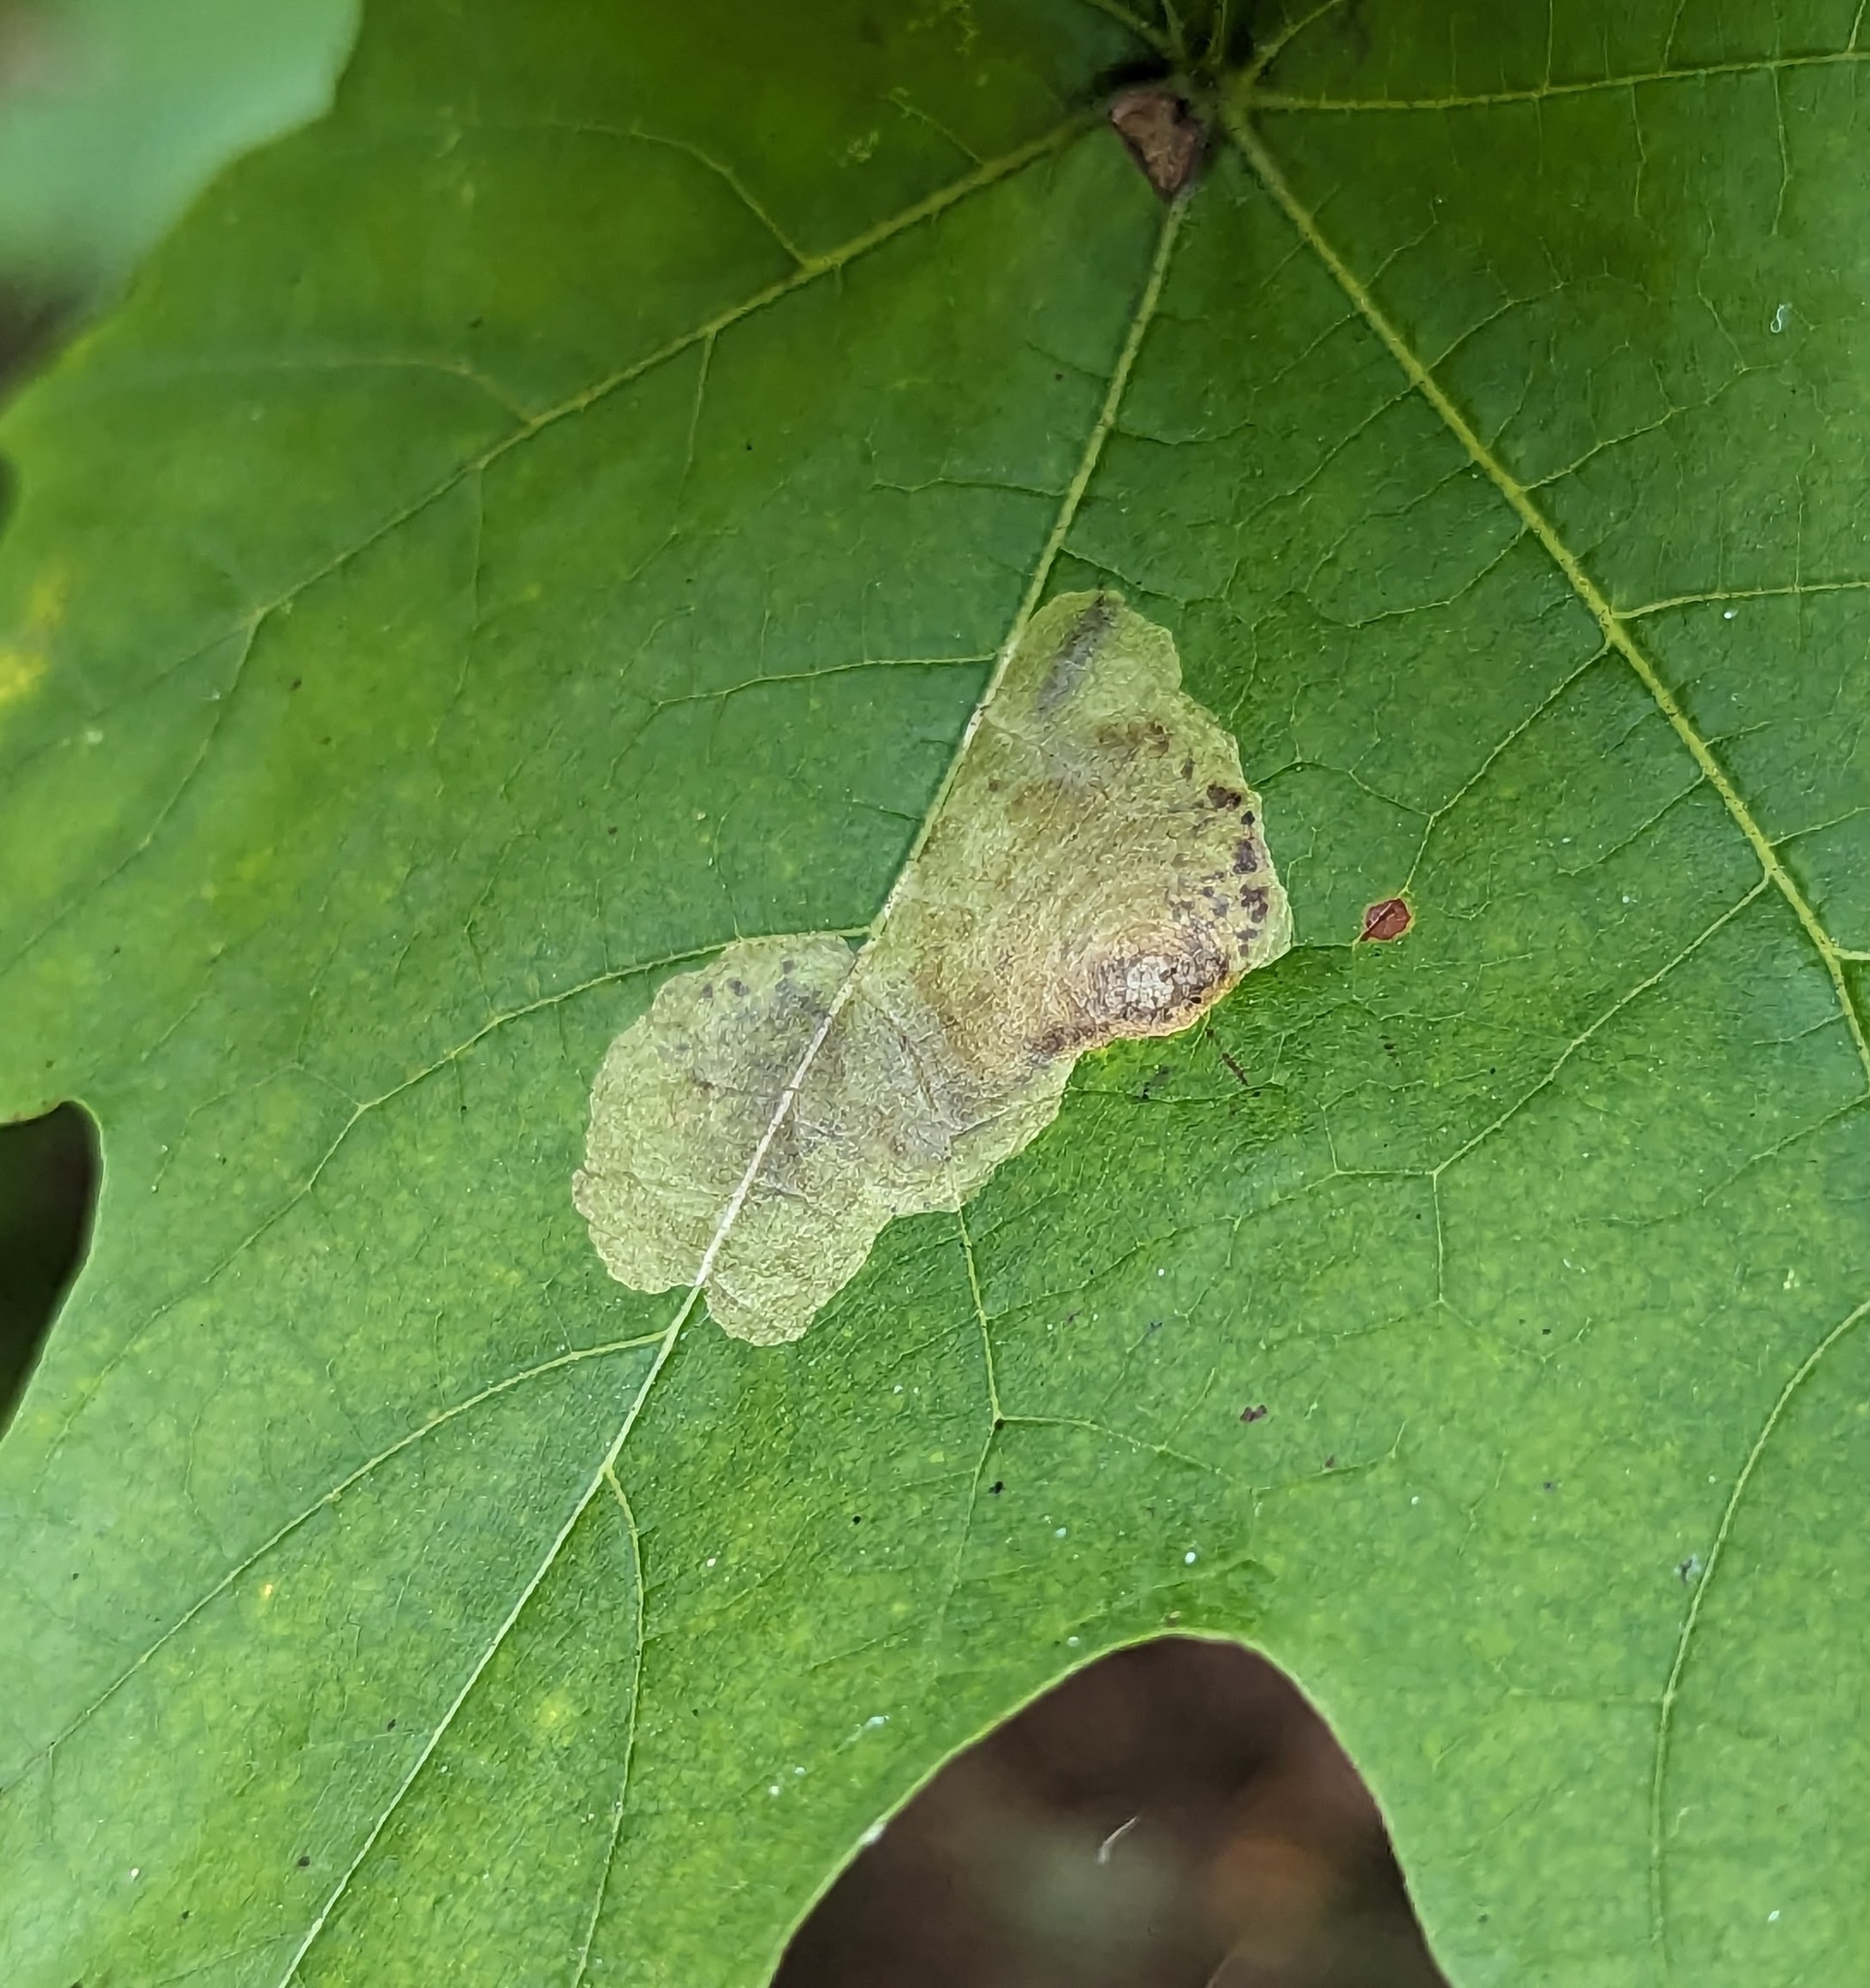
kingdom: Animalia
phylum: Arthropoda
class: Insecta
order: Lepidoptera
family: Gracillariidae
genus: Cameraria
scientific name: Cameraria aceriella
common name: Maple leafblotch miner
